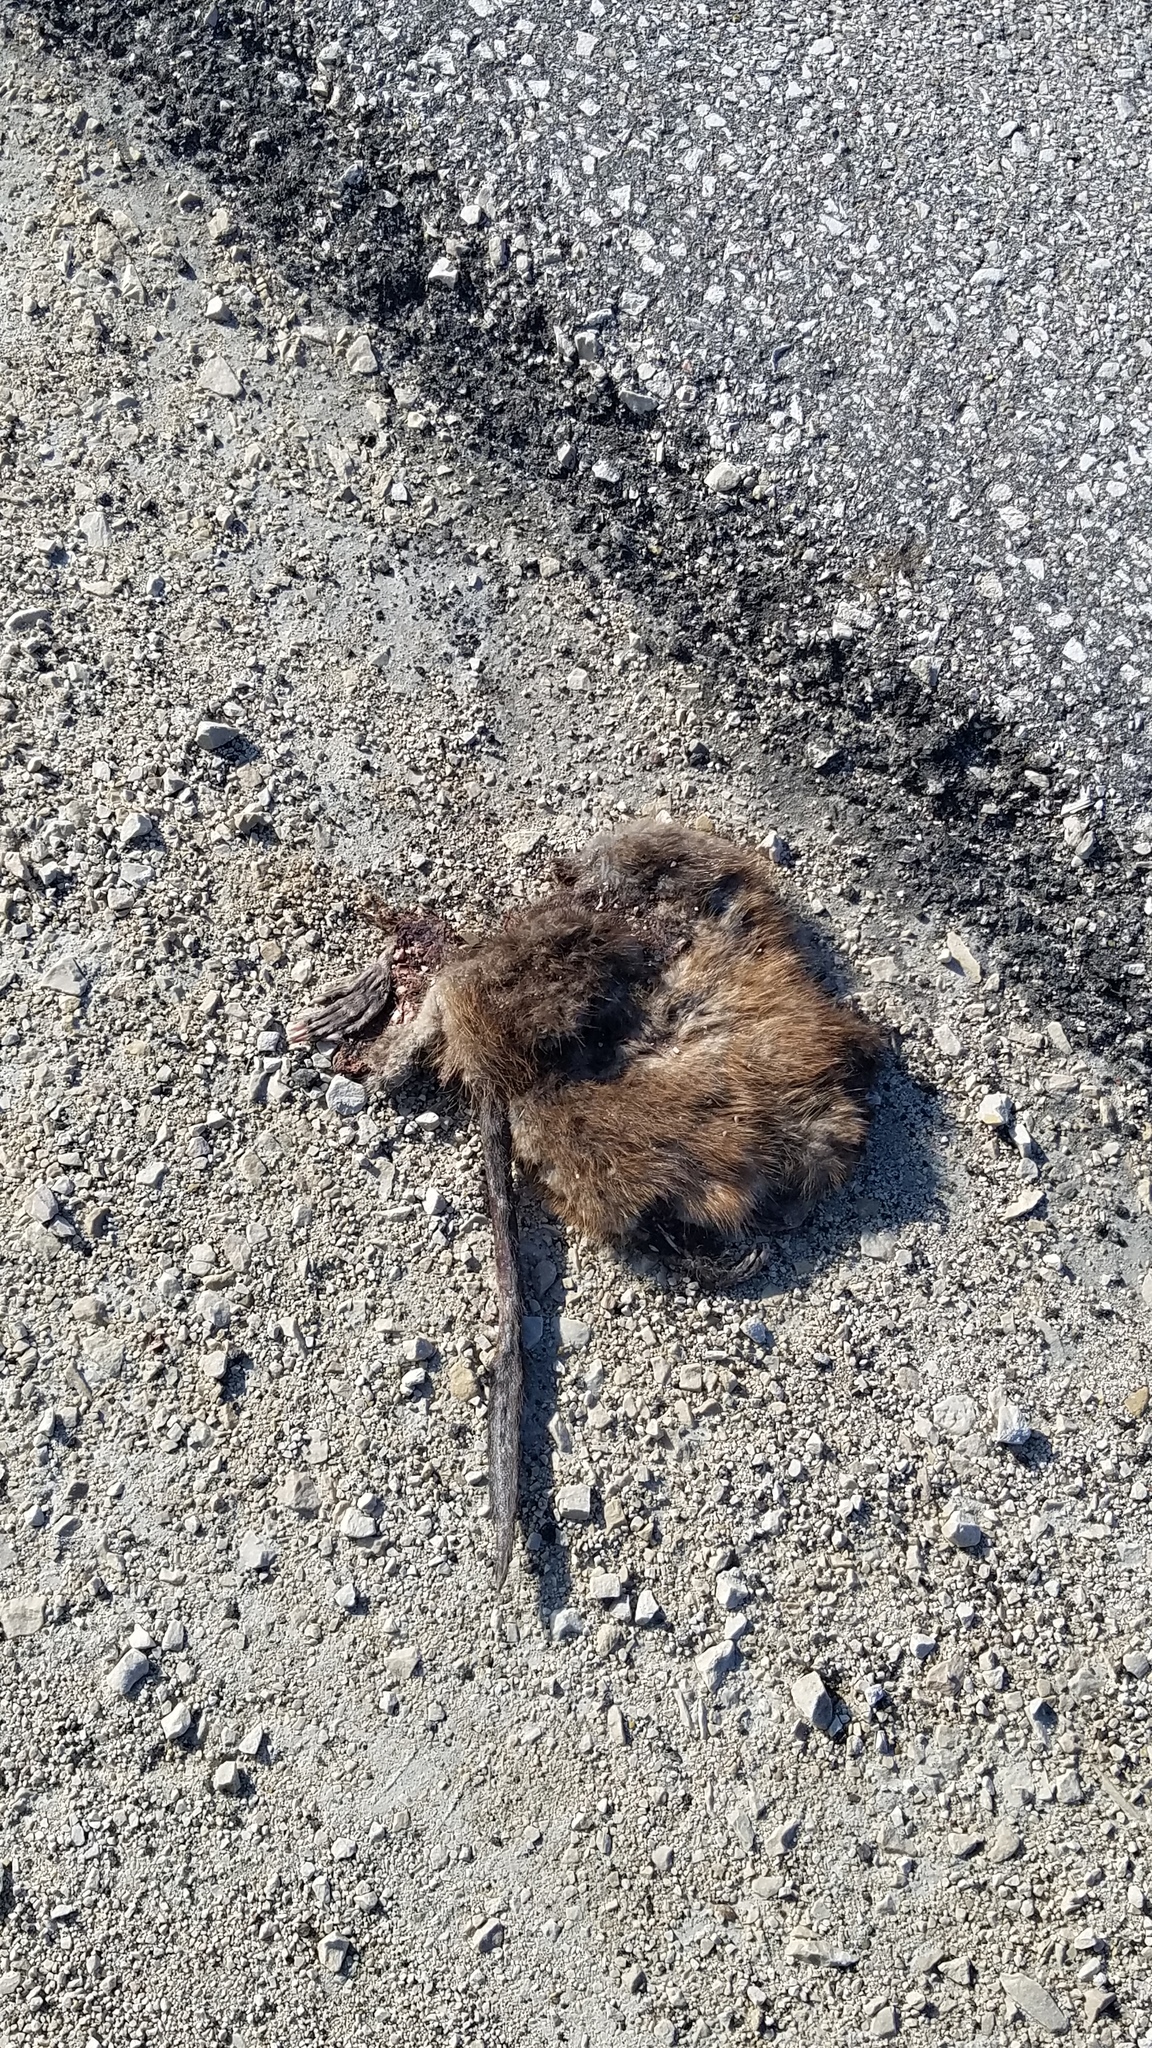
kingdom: Animalia
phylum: Chordata
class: Mammalia
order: Rodentia
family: Cricetidae
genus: Ondatra
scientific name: Ondatra zibethicus
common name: Muskrat
